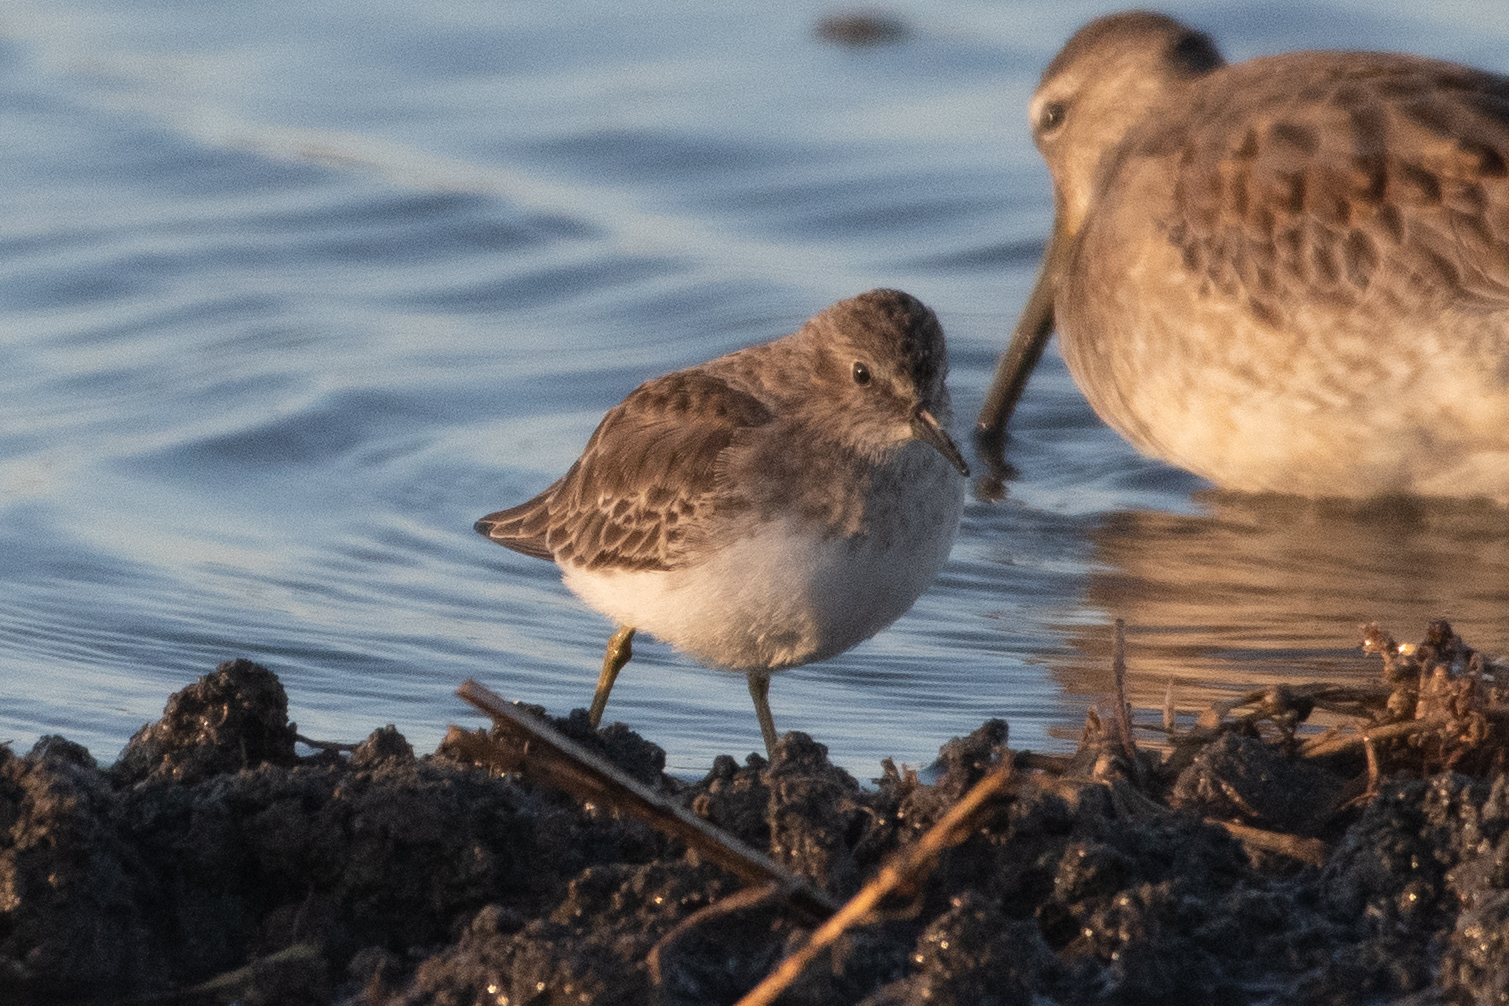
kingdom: Animalia
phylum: Chordata
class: Aves
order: Charadriiformes
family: Scolopacidae
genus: Calidris
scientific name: Calidris minutilla
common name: Least sandpiper
